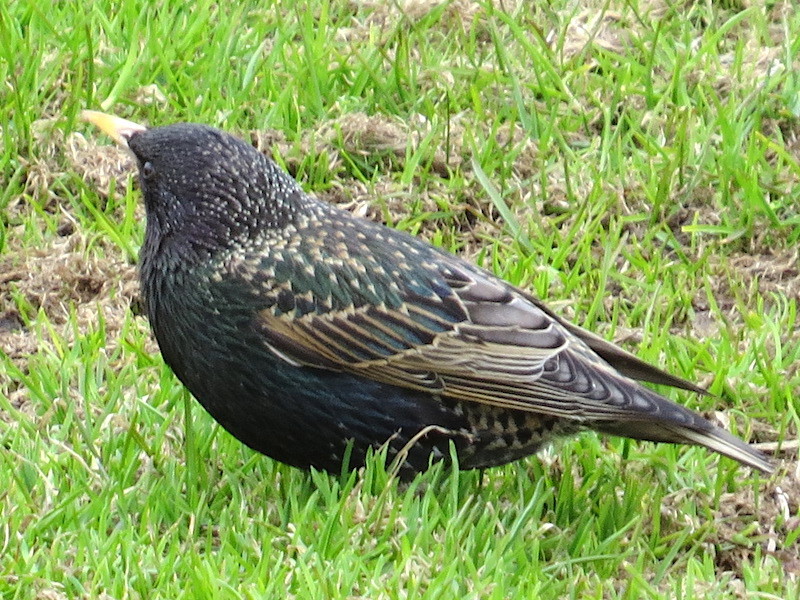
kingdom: Animalia
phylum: Chordata
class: Aves
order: Passeriformes
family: Sturnidae
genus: Sturnus
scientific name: Sturnus vulgaris
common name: Common starling
